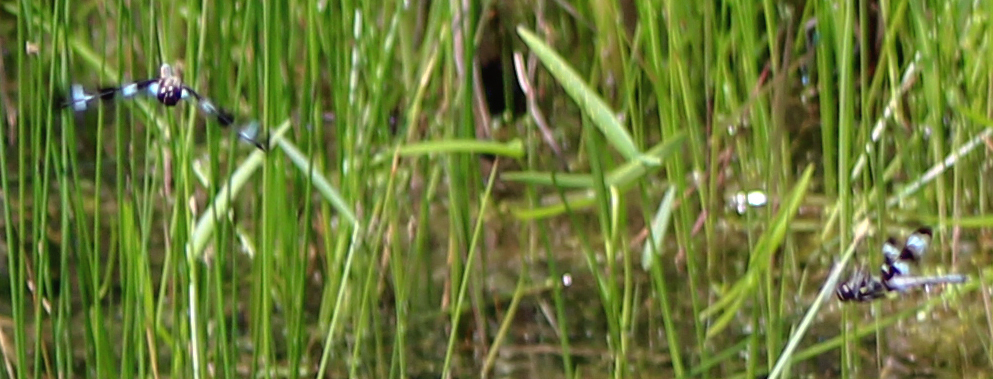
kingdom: Animalia
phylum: Arthropoda
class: Insecta
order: Odonata
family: Libellulidae
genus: Libellula
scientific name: Libellula pulchella
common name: Twelve-spotted skimmer
